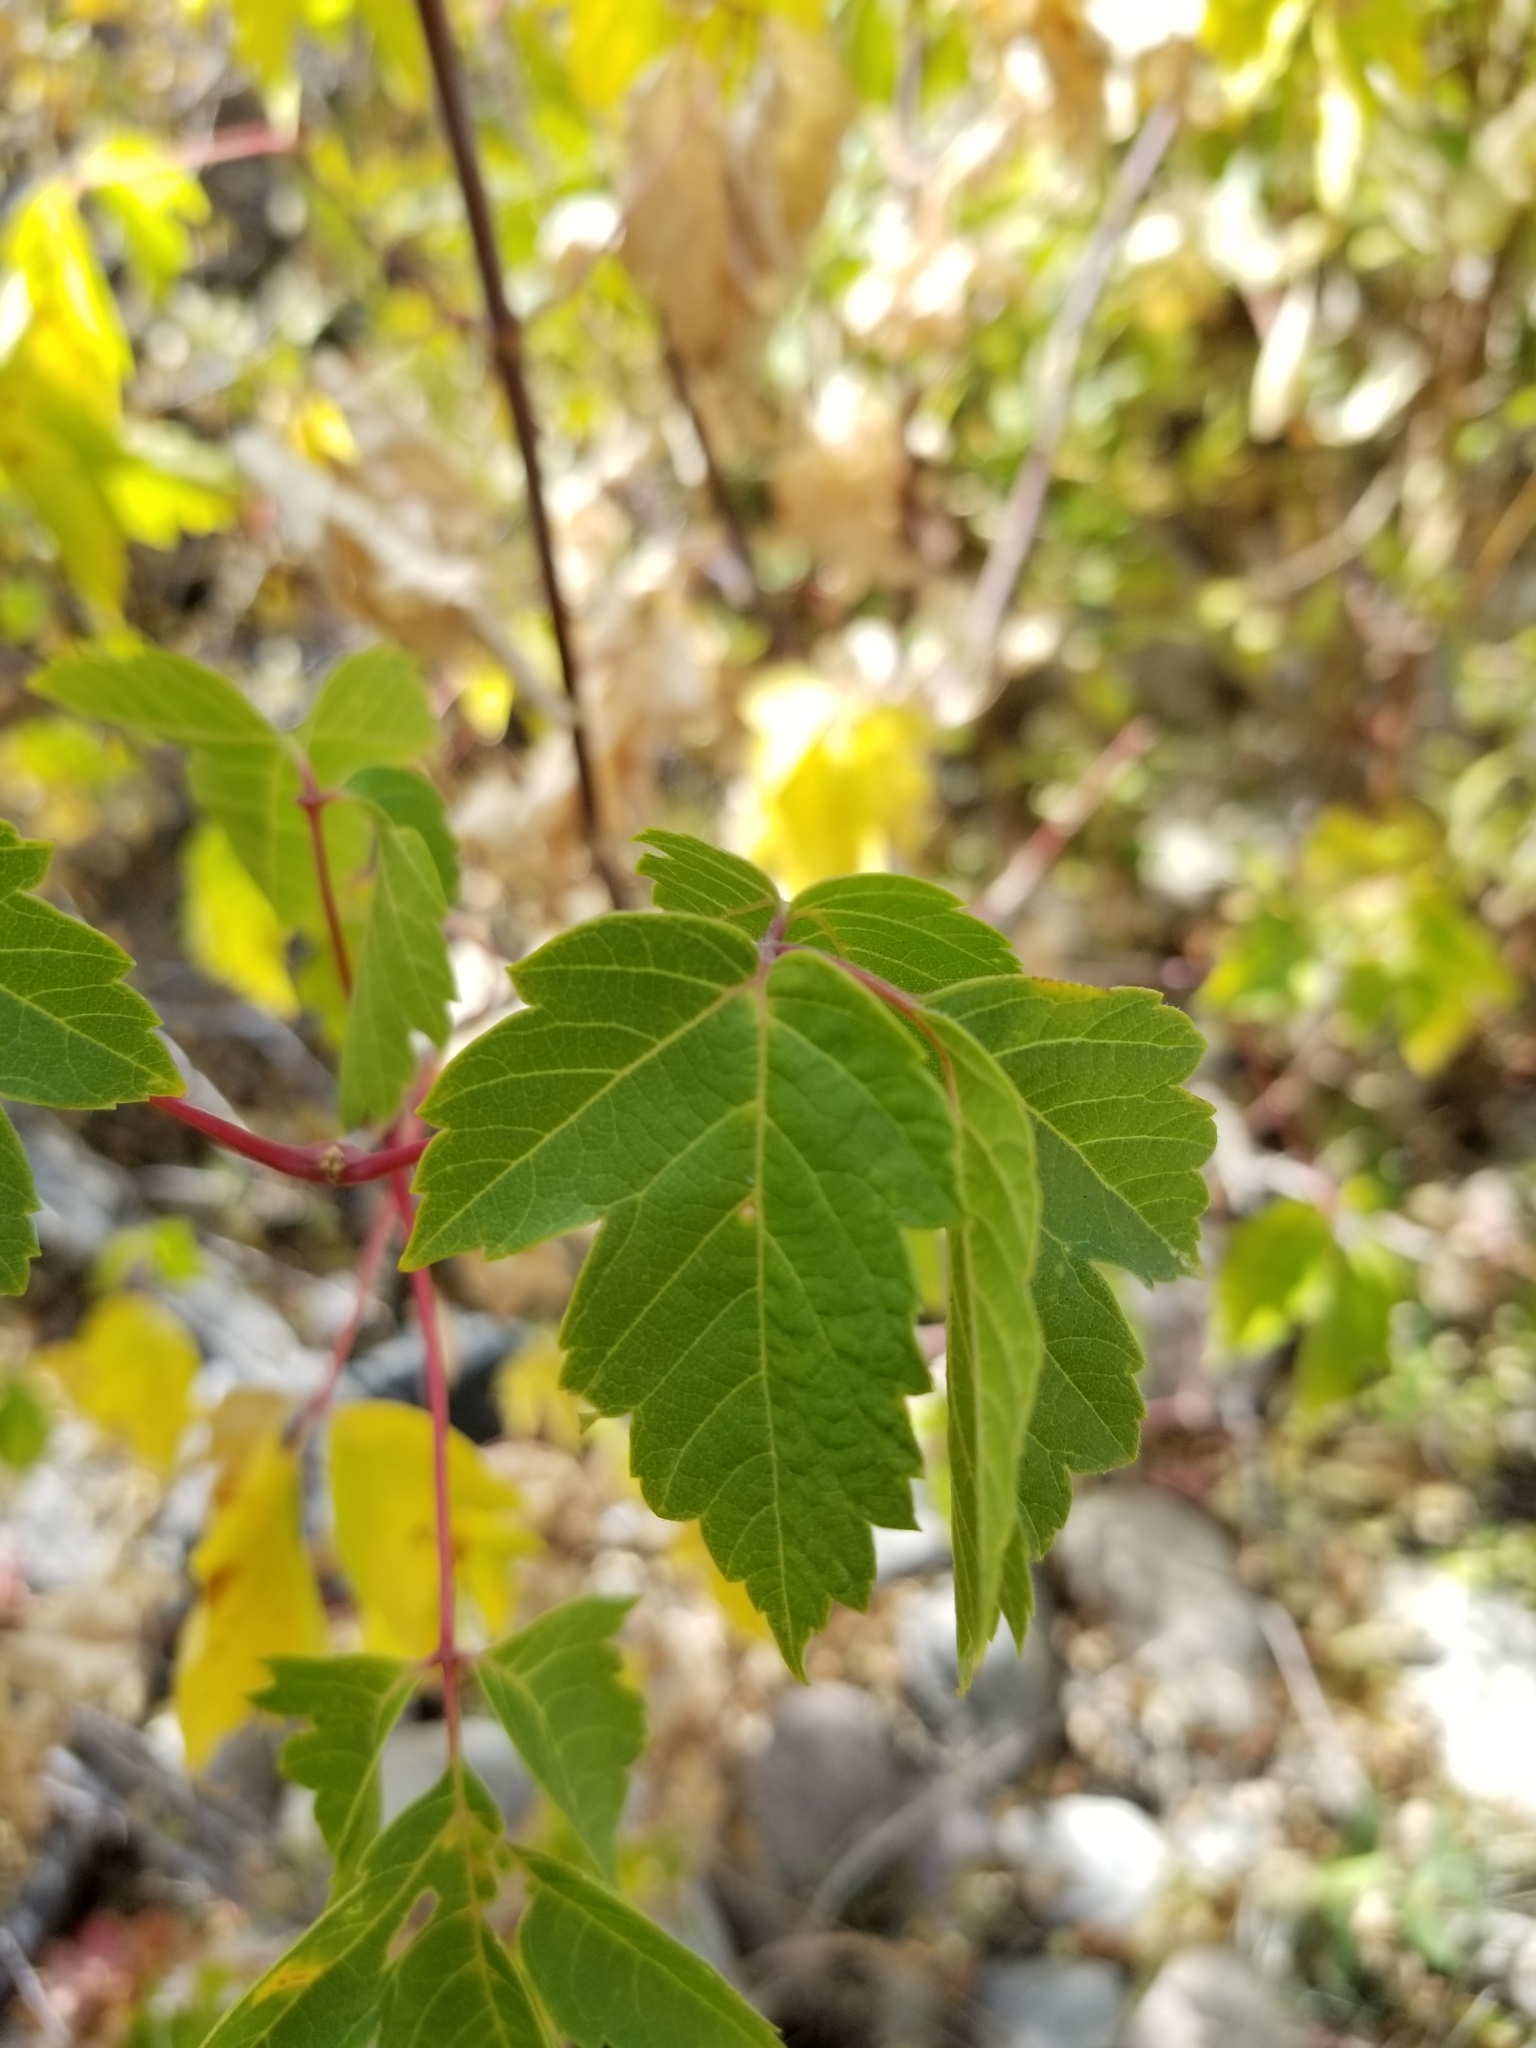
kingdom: Plantae
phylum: Tracheophyta
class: Magnoliopsida
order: Sapindales
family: Sapindaceae
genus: Acer
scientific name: Acer glabrum
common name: Rocky mountain maple
